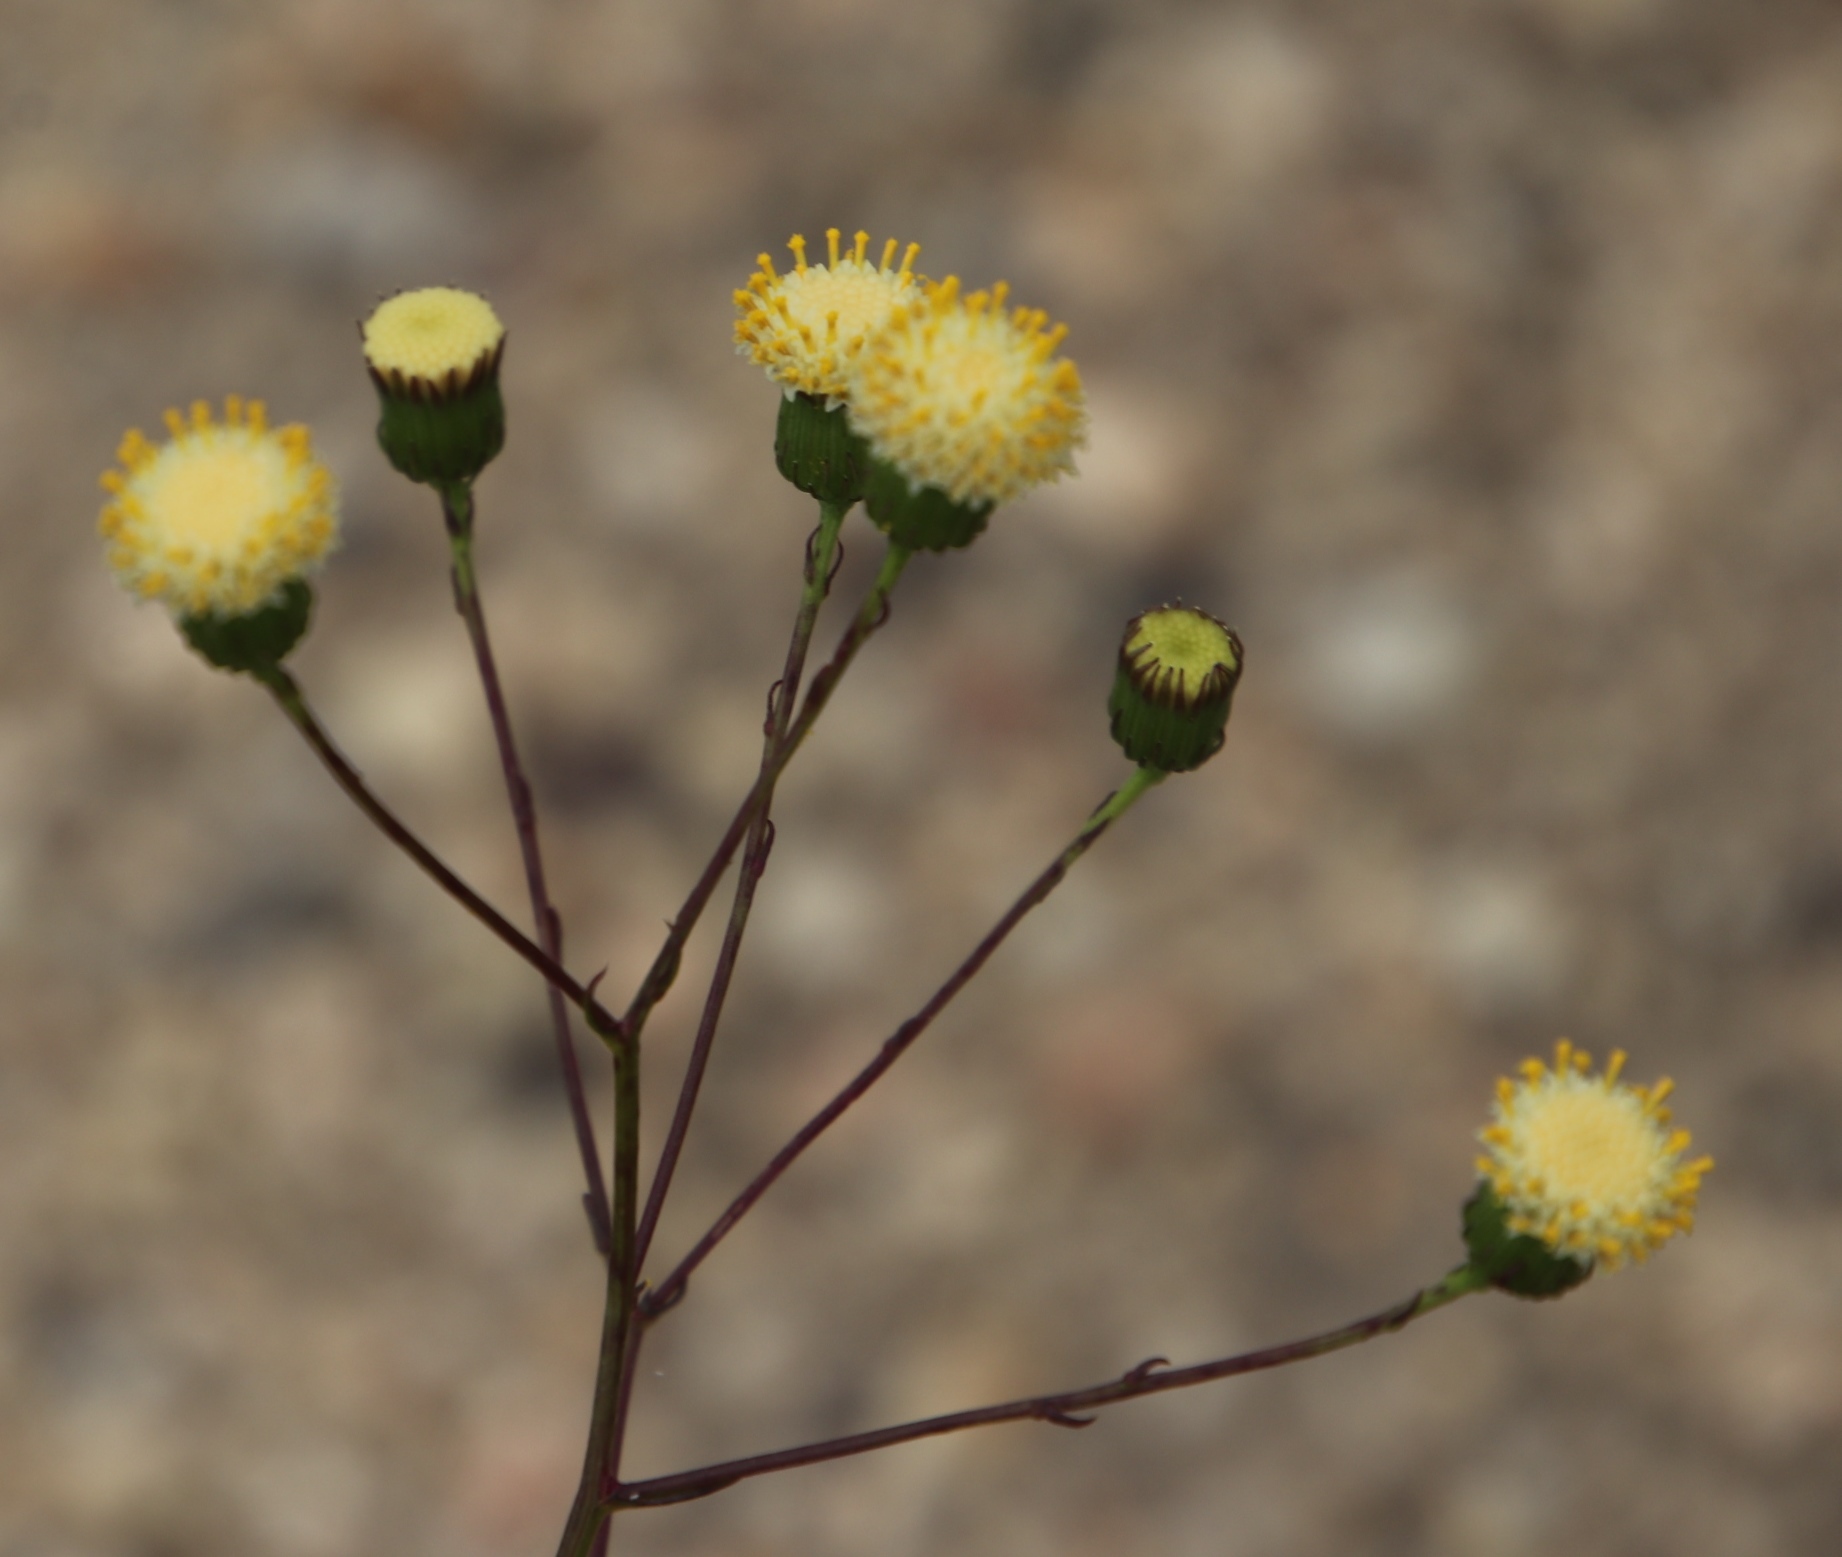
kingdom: Plantae
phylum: Tracheophyta
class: Magnoliopsida
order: Asterales
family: Asteraceae
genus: Senecio
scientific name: Senecio paniculatus
